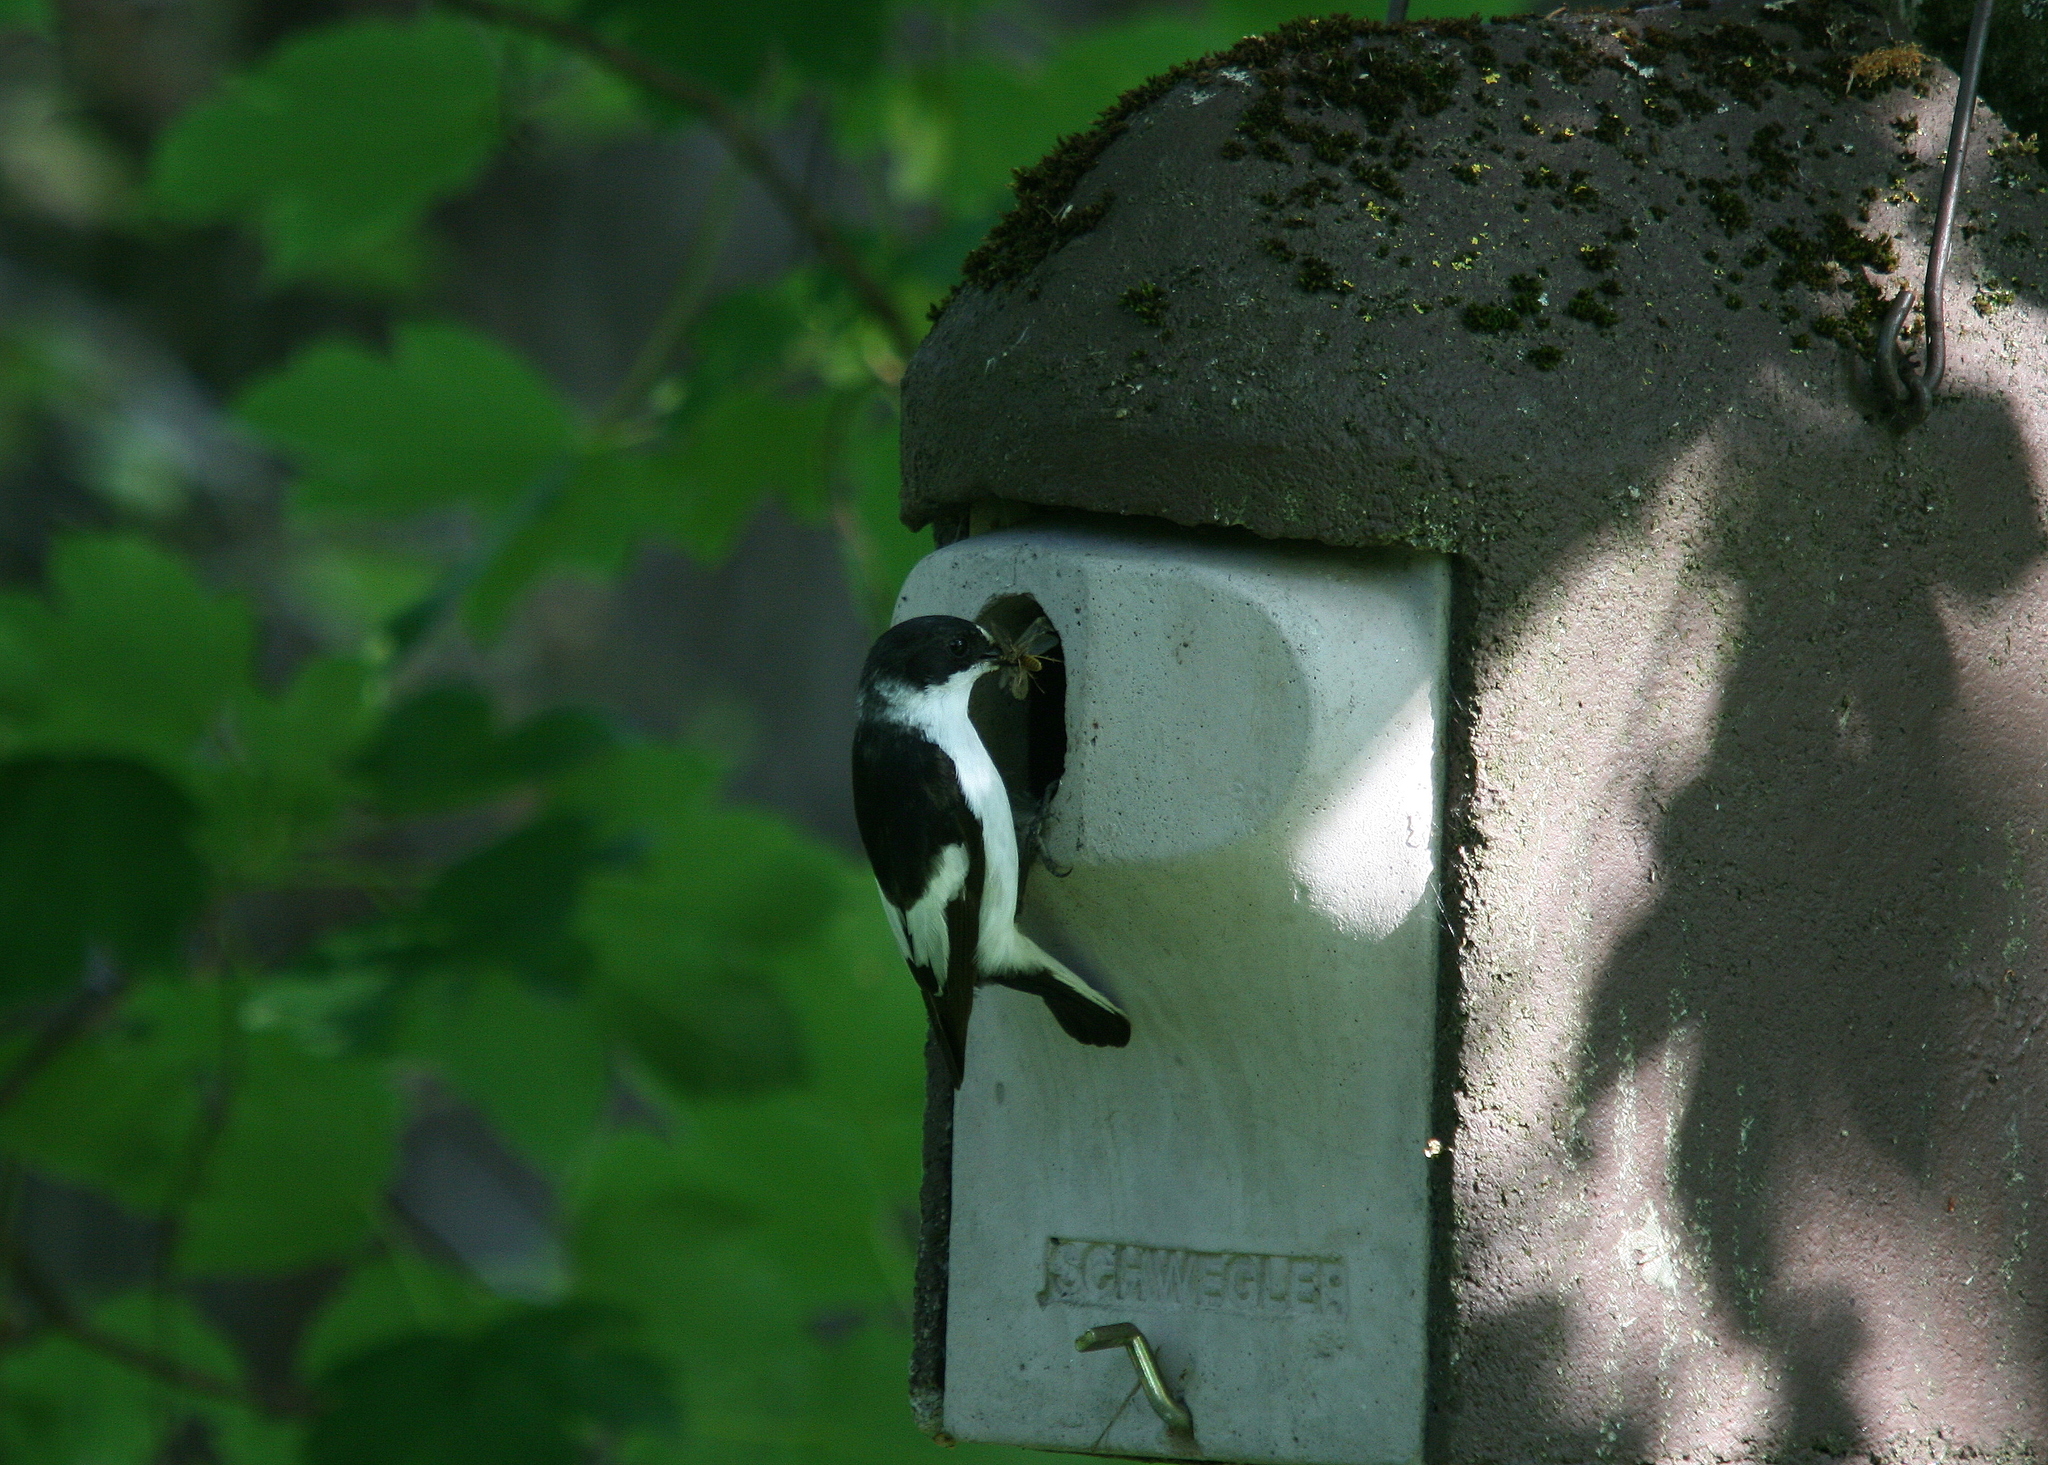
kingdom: Animalia
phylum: Chordata
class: Aves
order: Passeriformes
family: Muscicapidae
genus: Ficedula
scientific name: Ficedula albicollis
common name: Collared flycatcher
